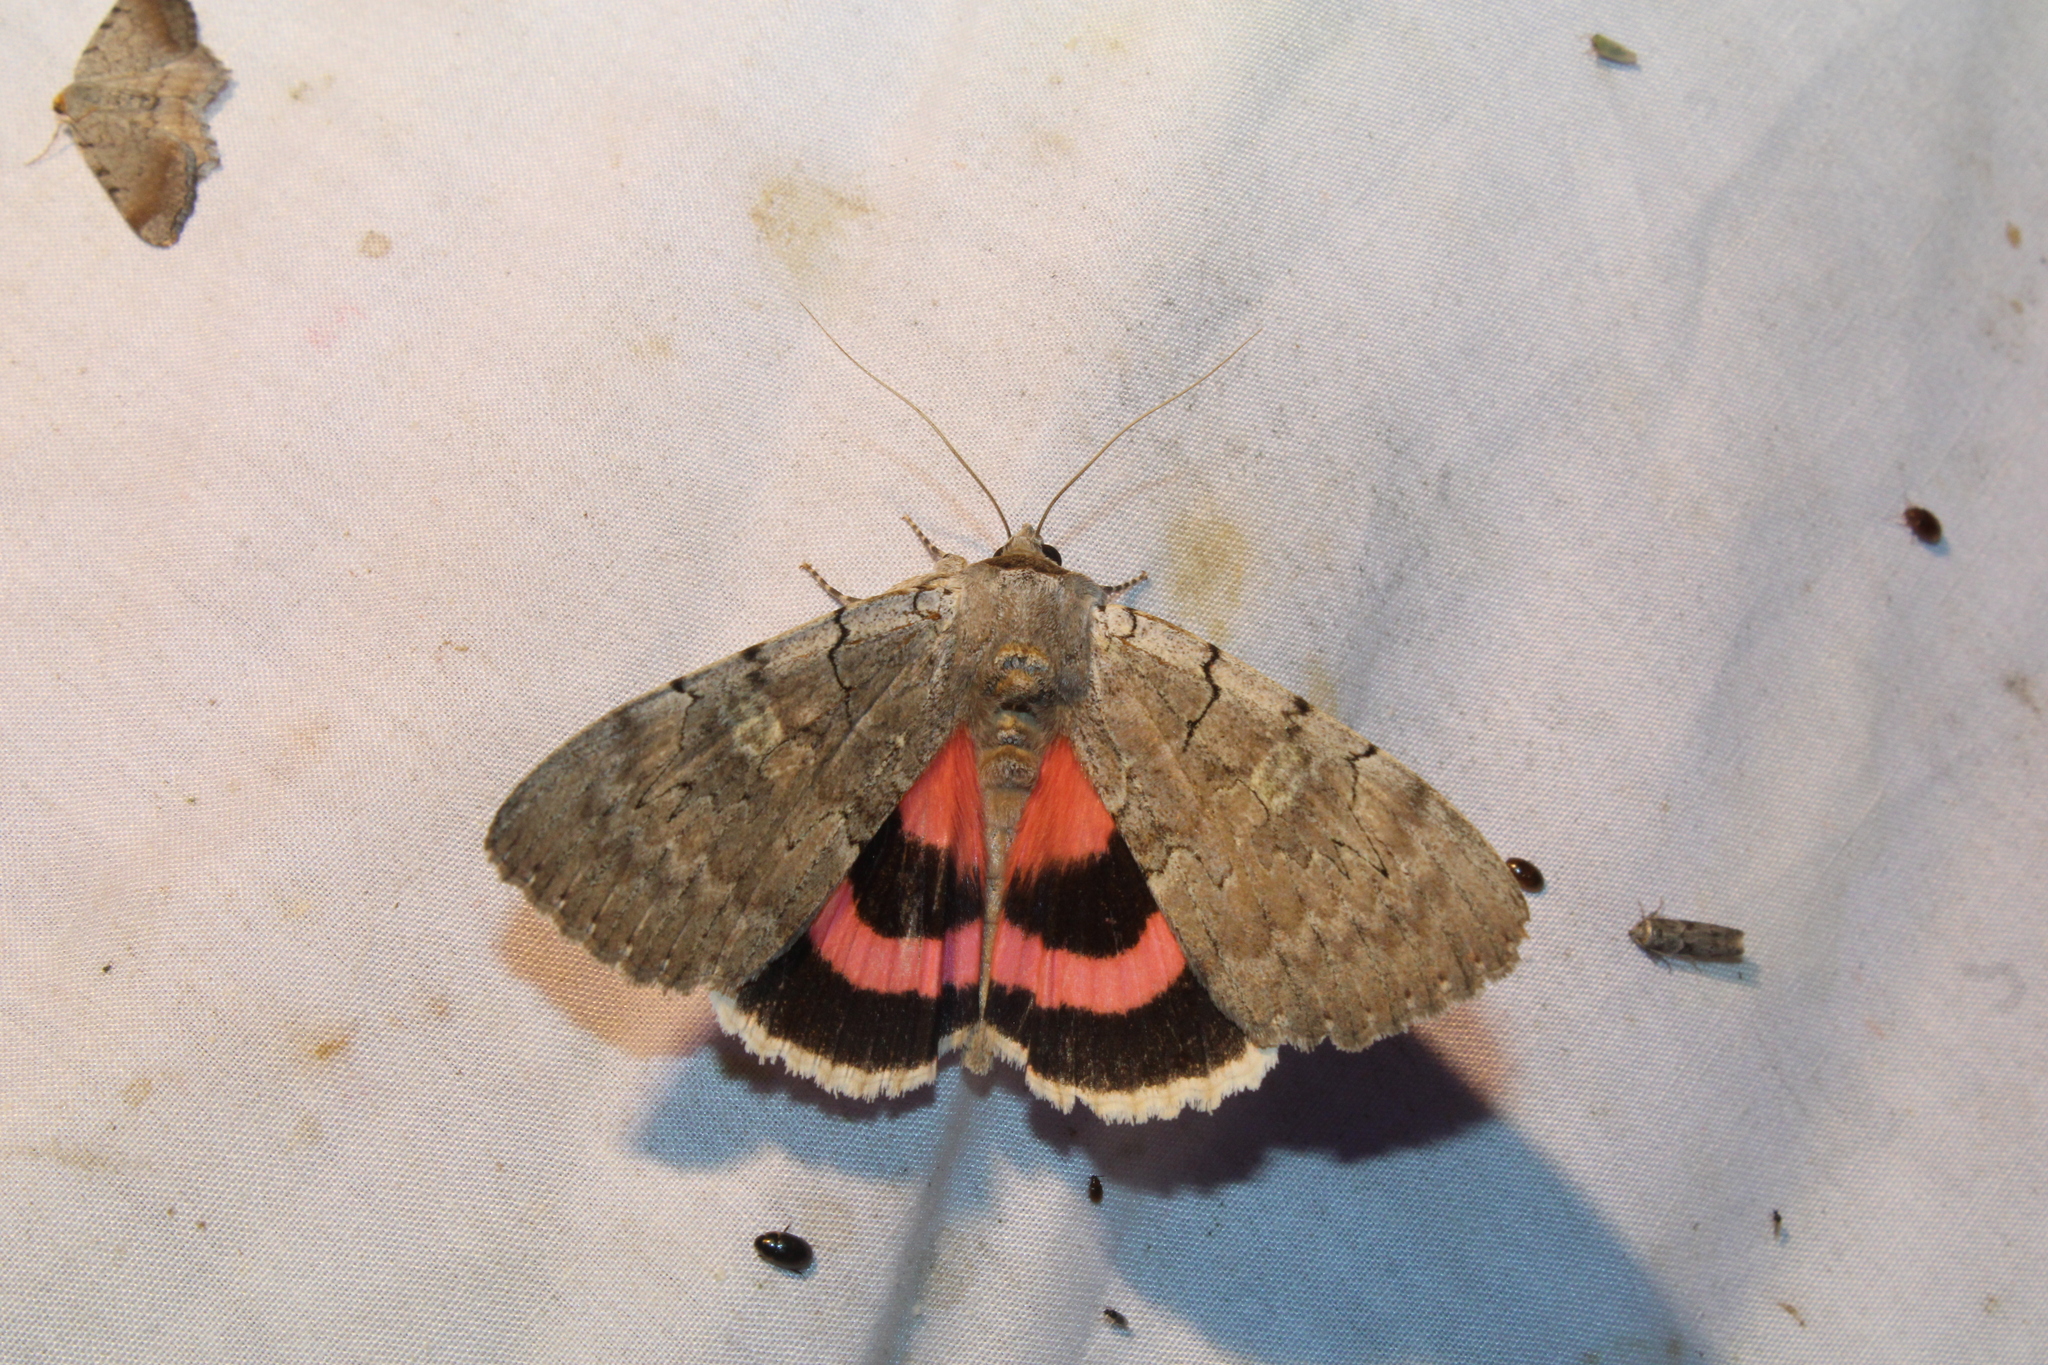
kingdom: Animalia
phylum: Arthropoda
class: Insecta
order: Lepidoptera
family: Erebidae
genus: Catocala
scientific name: Catocala concumbens
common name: Pink underwing
